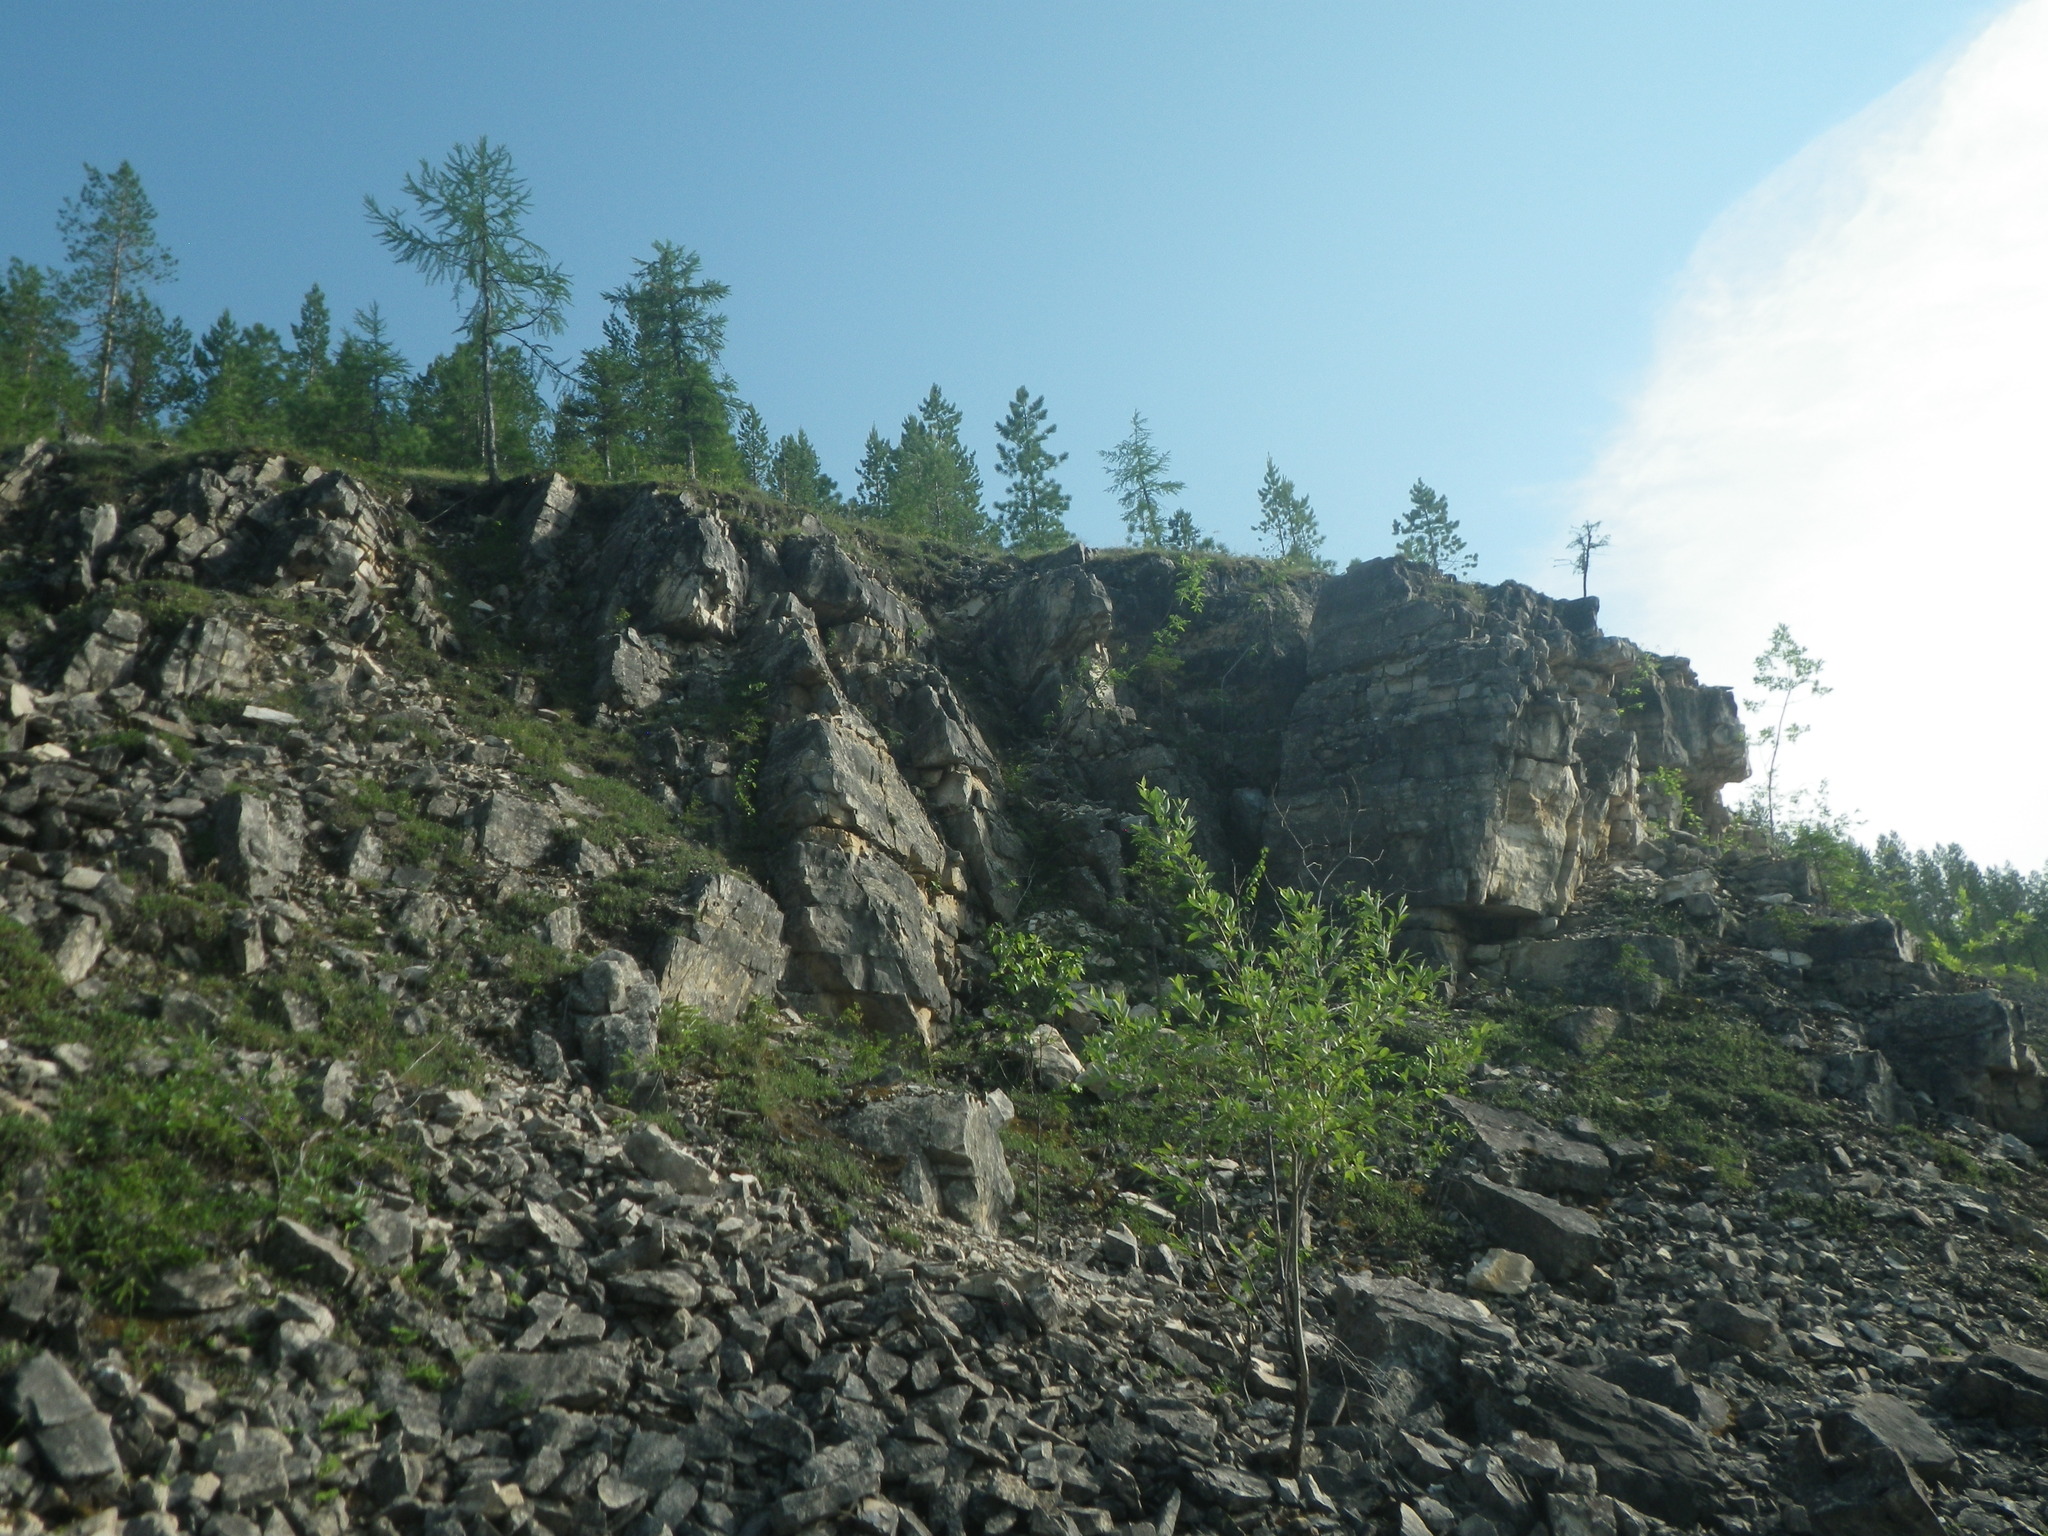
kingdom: Plantae
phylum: Tracheophyta
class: Pinopsida
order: Pinales
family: Pinaceae
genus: Larix
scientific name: Larix gmelinii
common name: Dahurian larch
